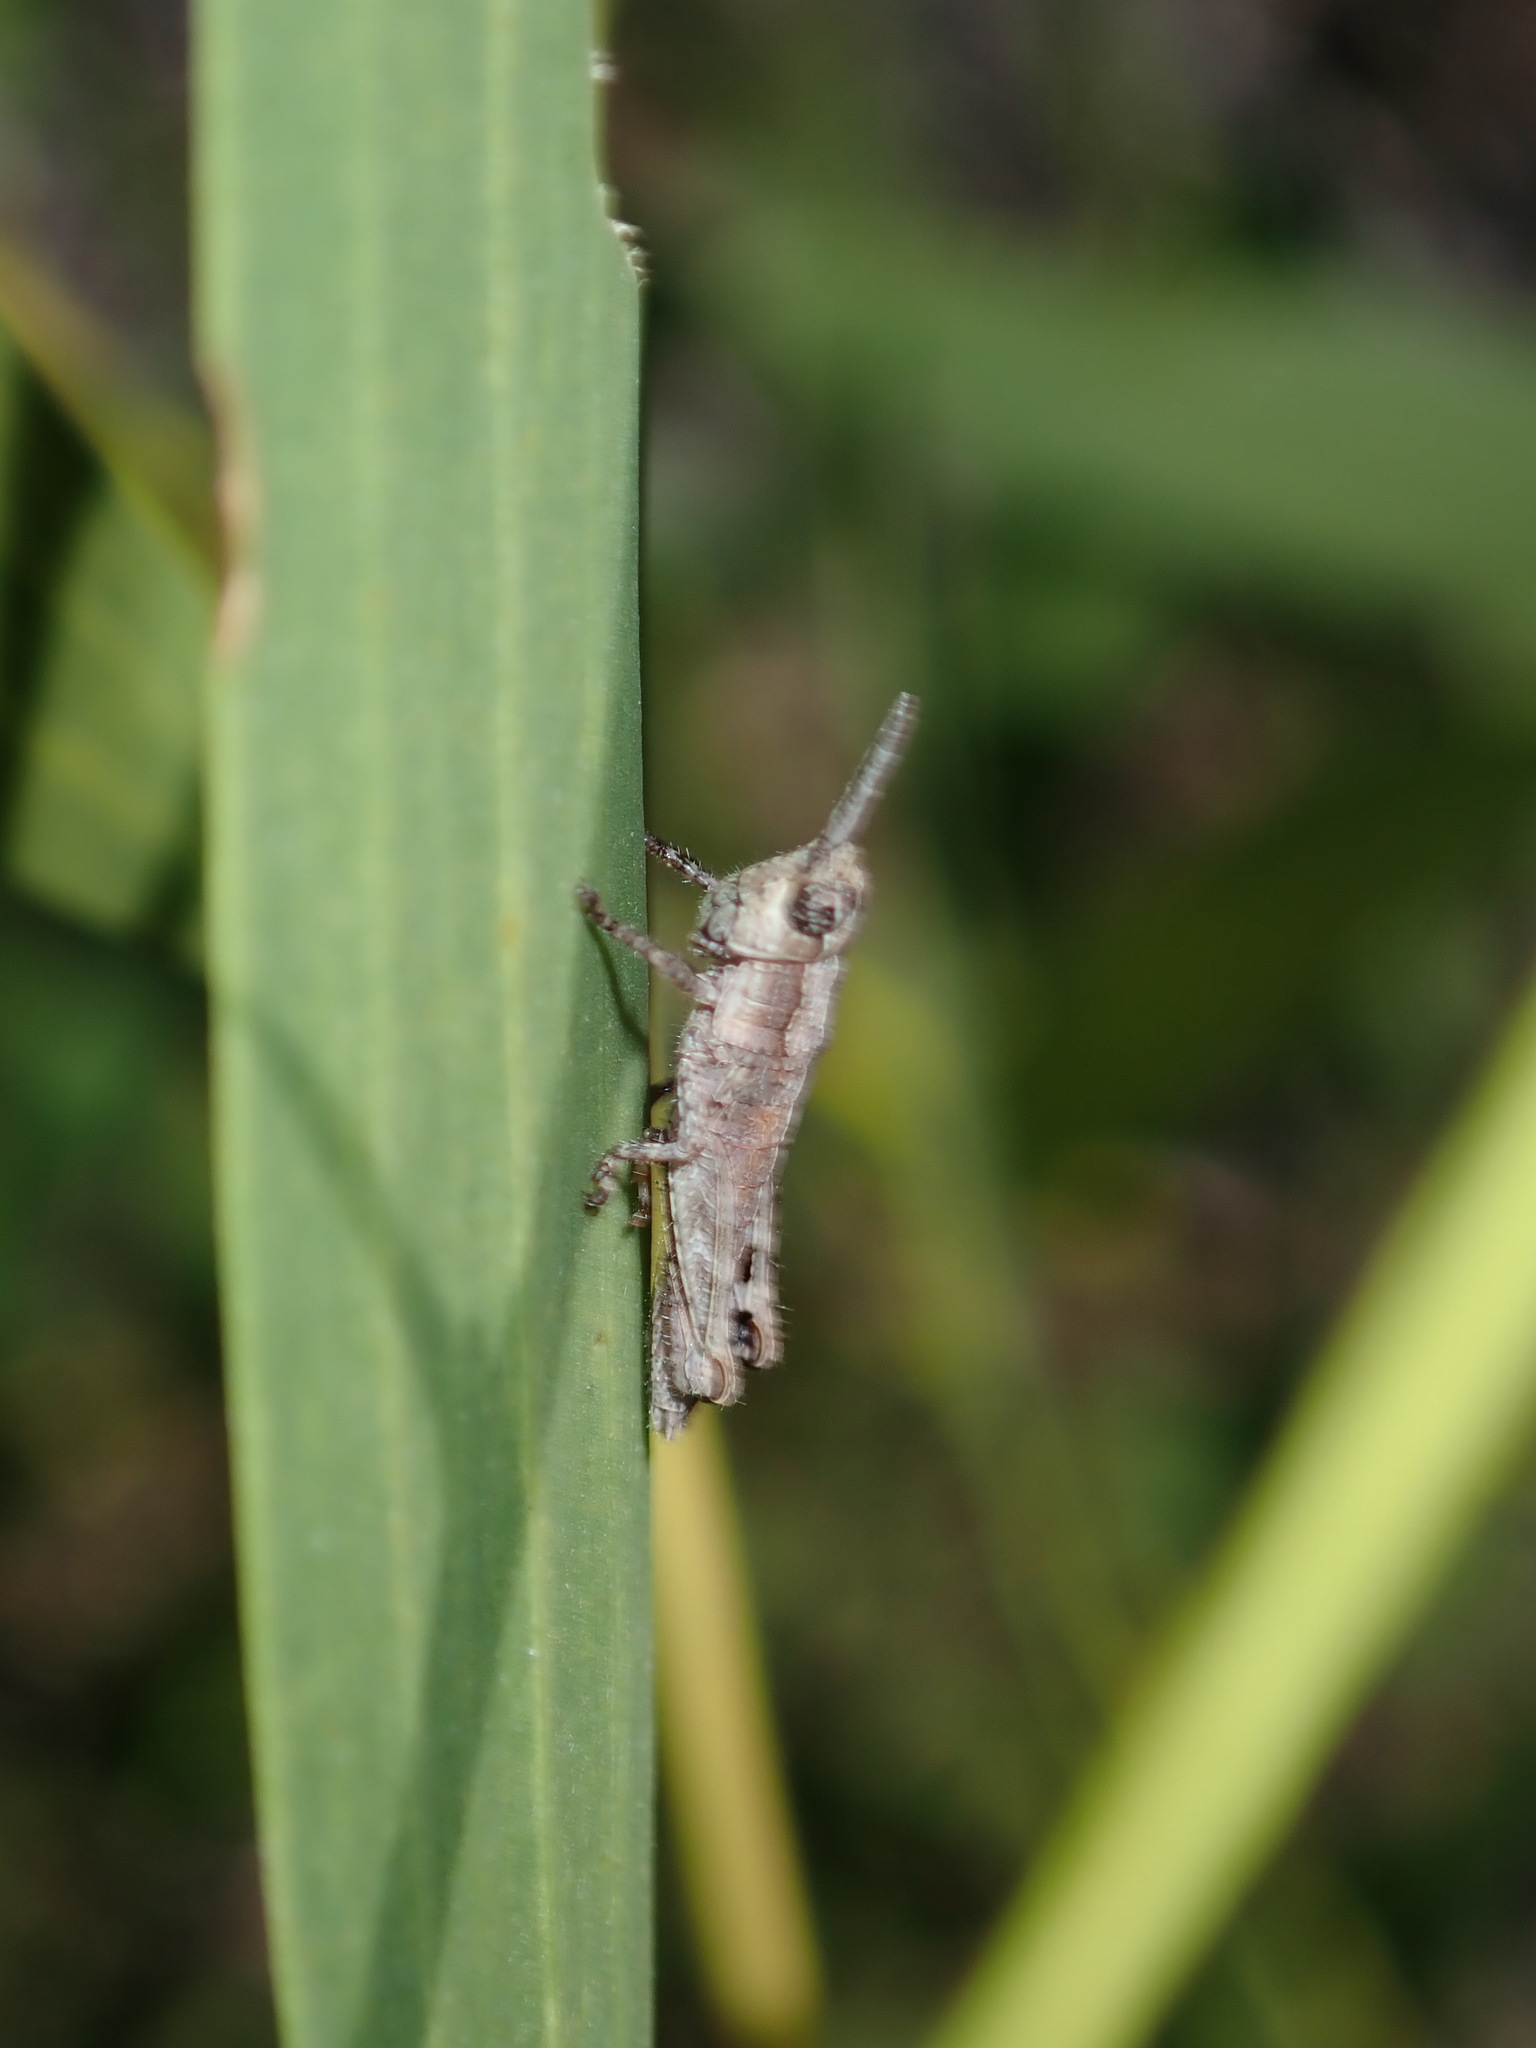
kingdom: Animalia
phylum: Arthropoda
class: Insecta
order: Orthoptera
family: Acrididae
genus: Coryphistes
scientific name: Coryphistes ruricola
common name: Bark-mimicking grasshopper
